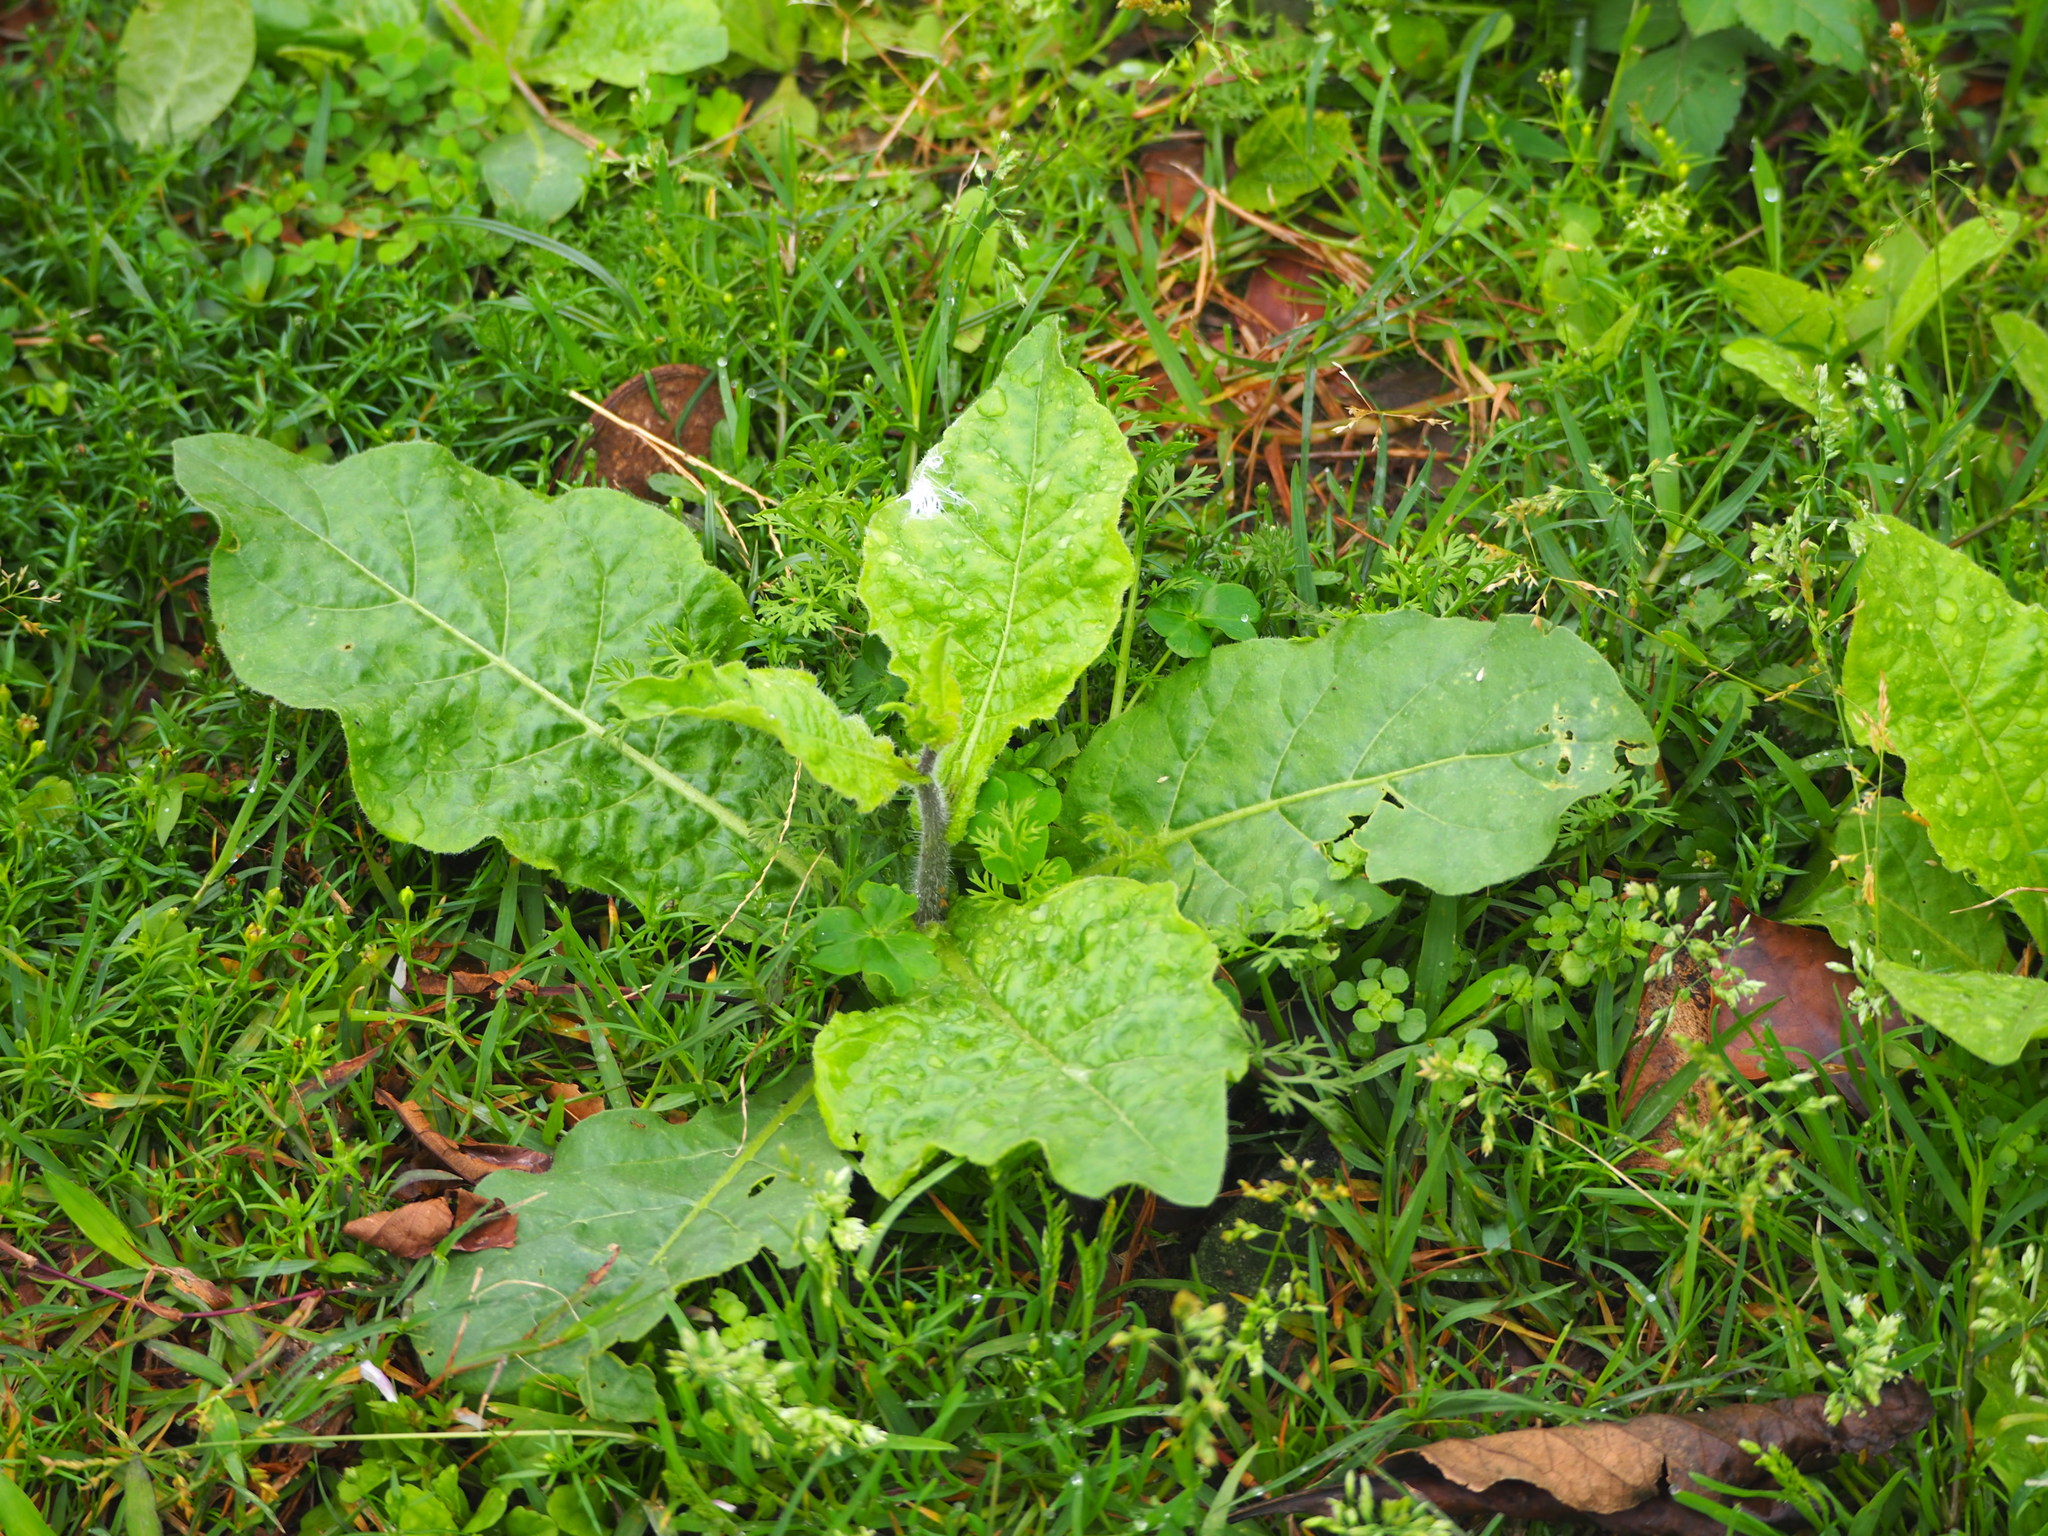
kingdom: Plantae
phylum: Tracheophyta
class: Magnoliopsida
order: Solanales
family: Solanaceae
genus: Nicotiana
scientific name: Nicotiana plumbaginifolia
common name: Tex-mex tobacco
